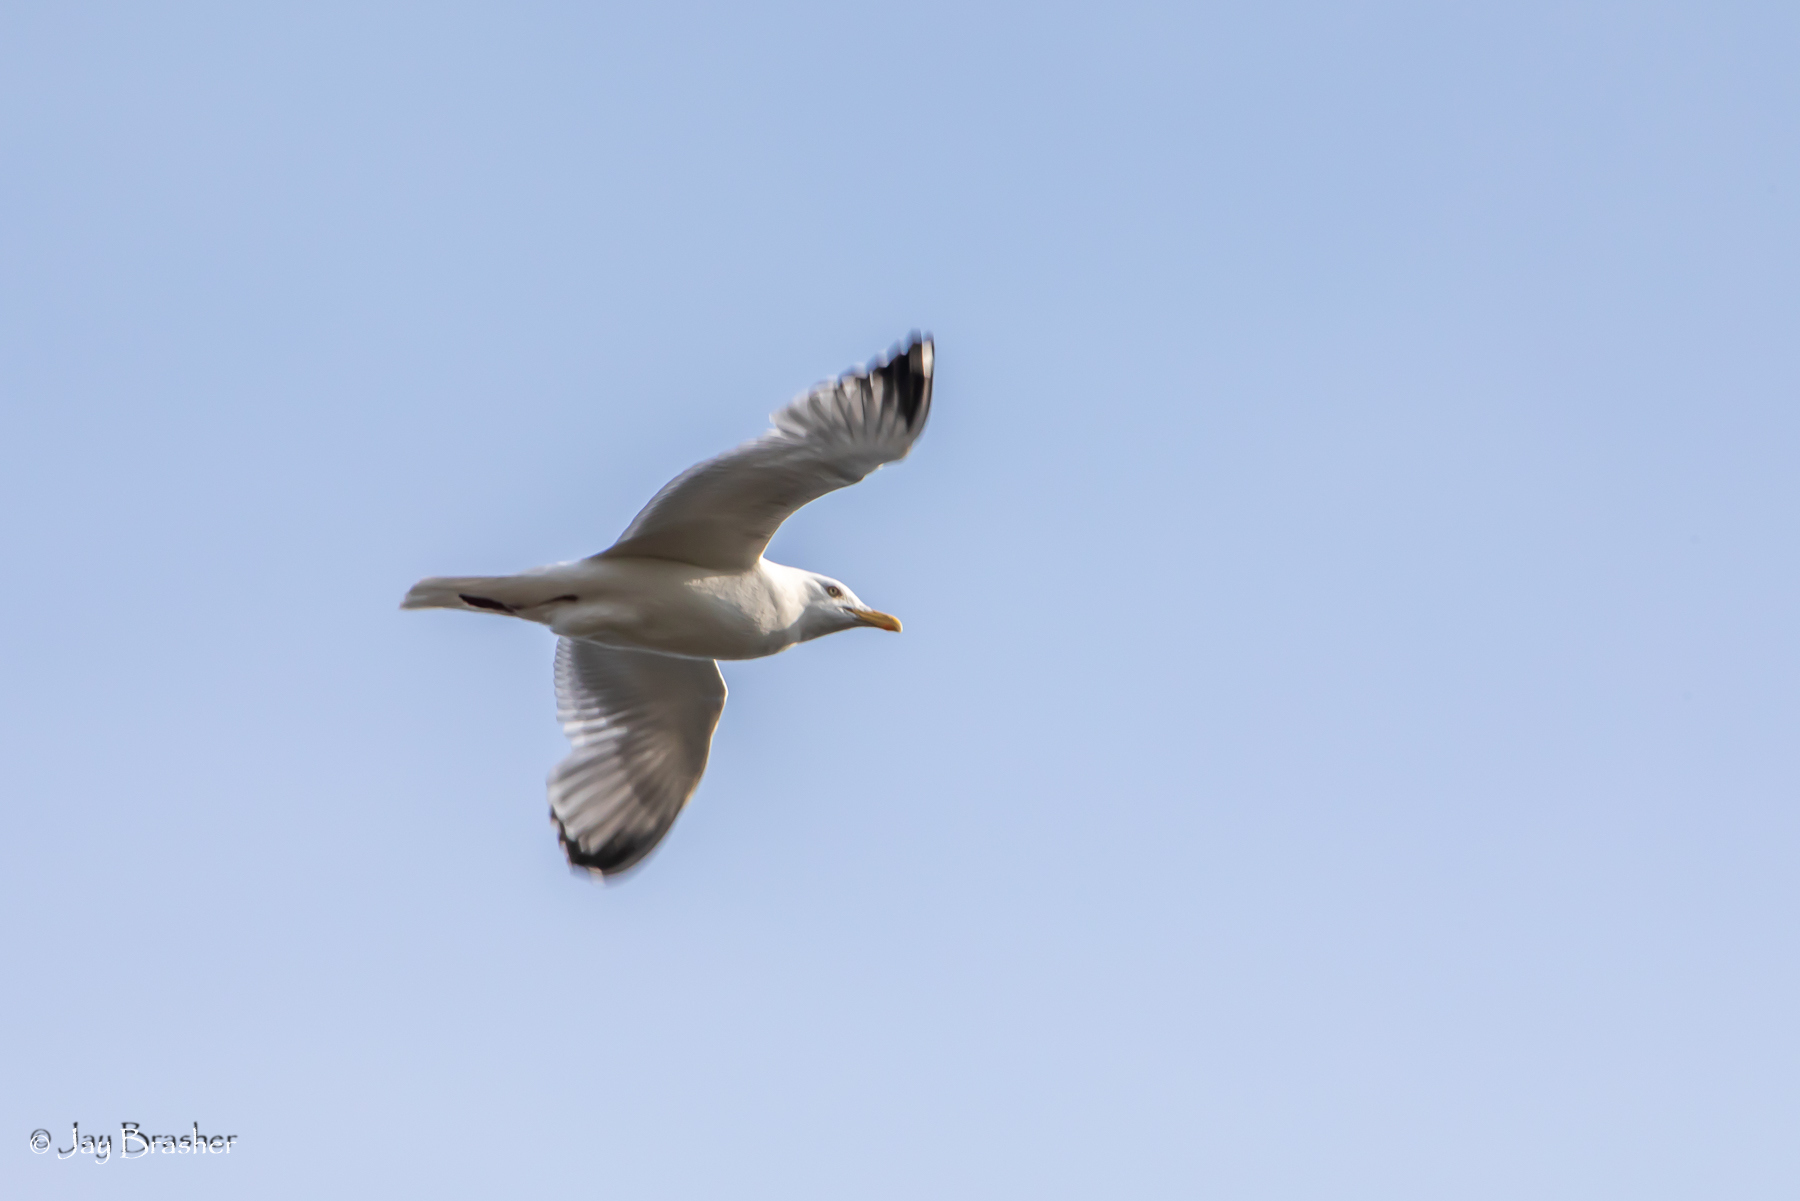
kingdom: Animalia
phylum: Chordata
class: Aves
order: Charadriiformes
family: Laridae
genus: Larus
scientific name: Larus argentatus
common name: Herring gull
